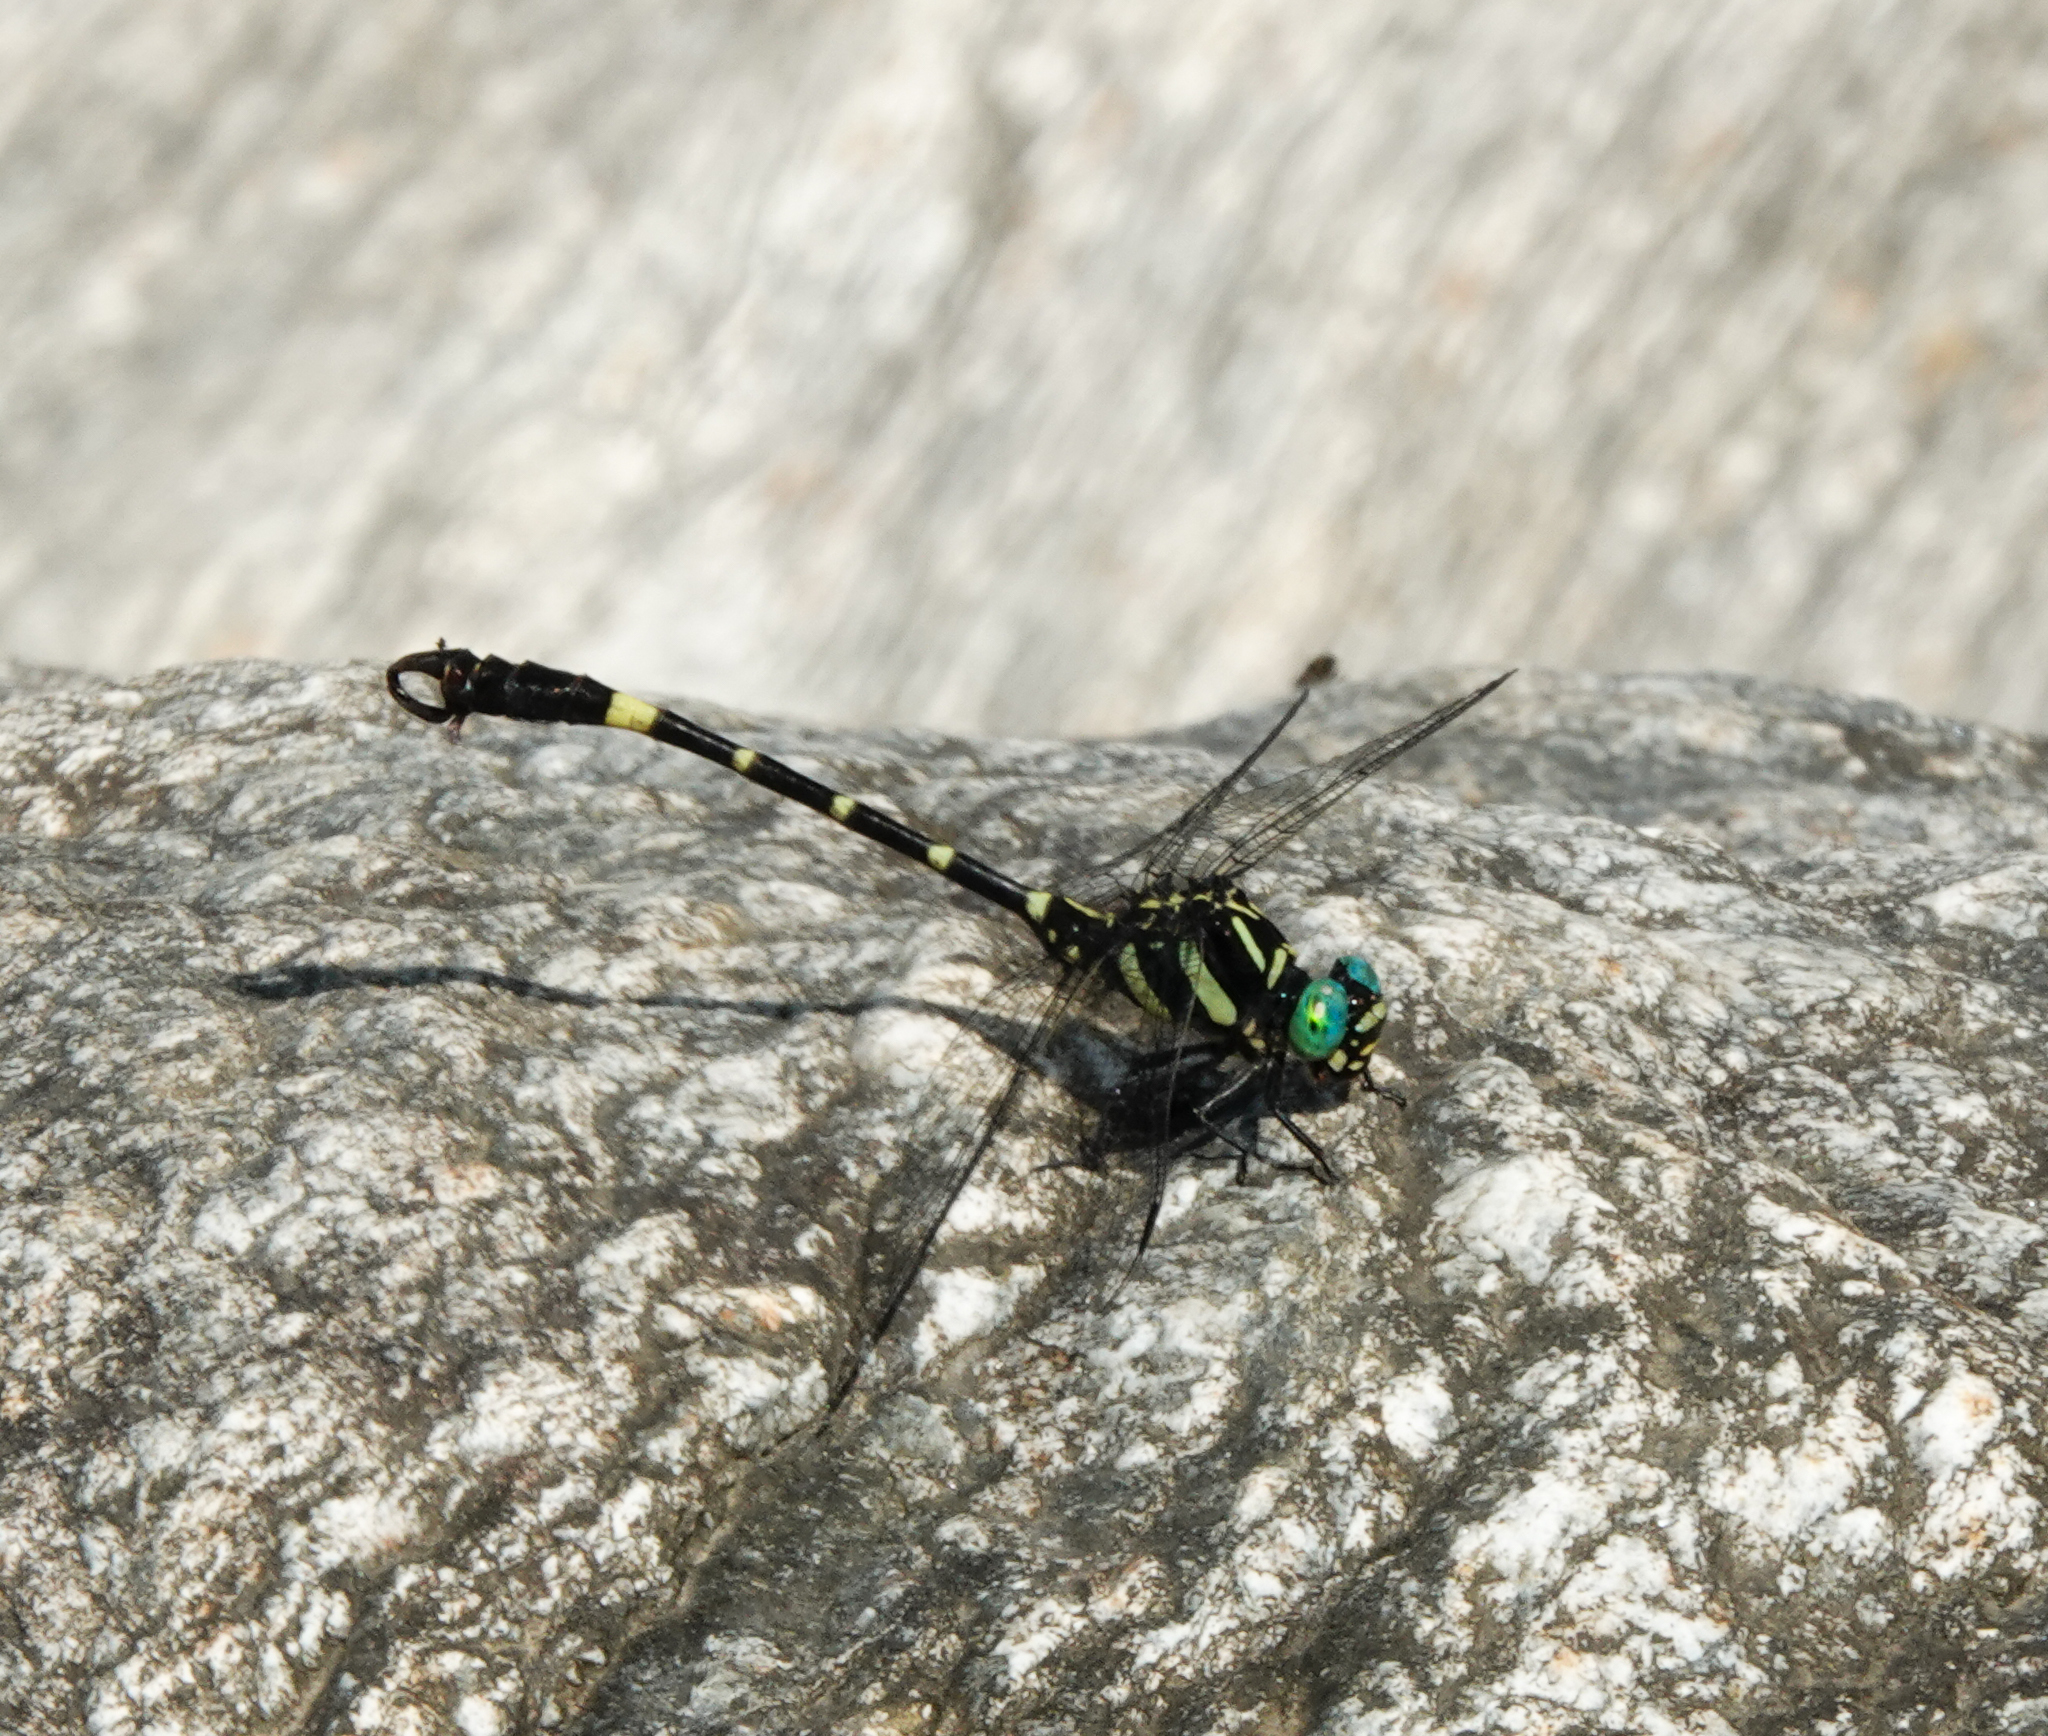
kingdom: Animalia
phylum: Arthropoda
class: Insecta
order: Odonata
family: Gomphidae
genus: Lamelligomphus
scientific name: Lamelligomphus risi
